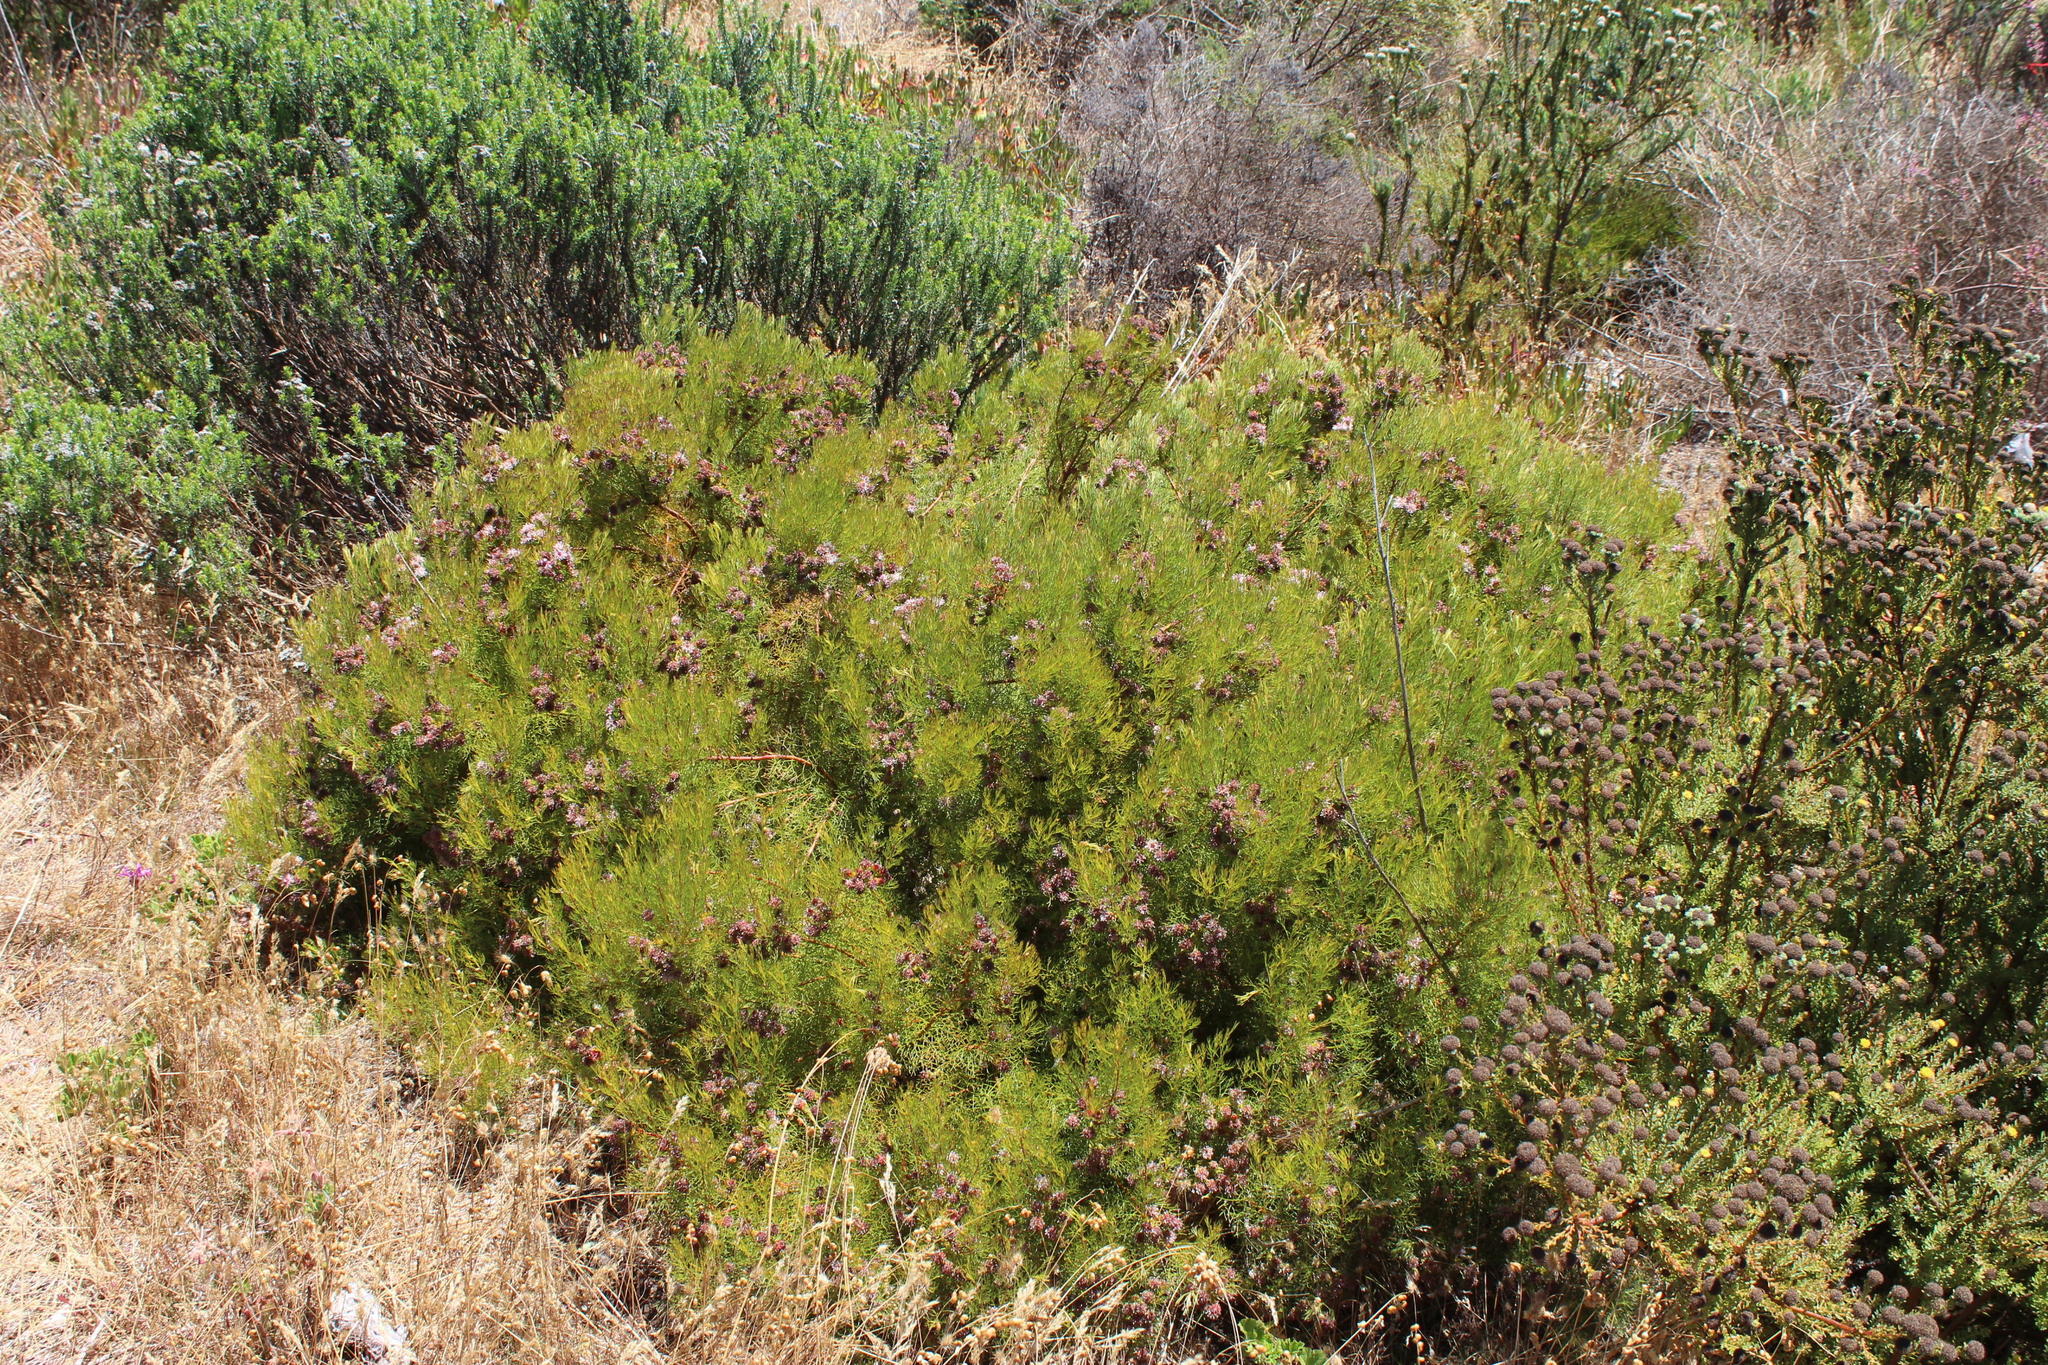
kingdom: Plantae
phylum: Tracheophyta
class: Magnoliopsida
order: Proteales
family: Proteaceae
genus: Serruria
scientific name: Serruria
